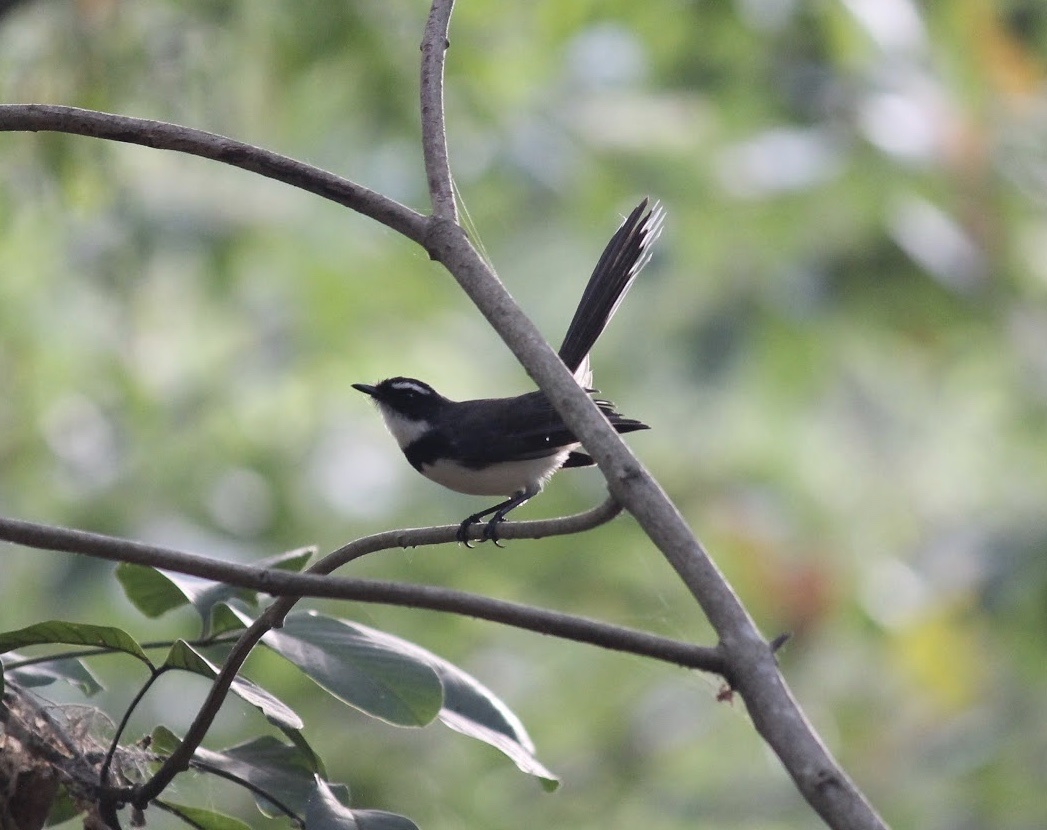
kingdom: Animalia
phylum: Chordata
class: Aves
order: Passeriformes
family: Rhipiduridae
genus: Rhipidura
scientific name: Rhipidura nigritorquis
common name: Philippine pied fantail
